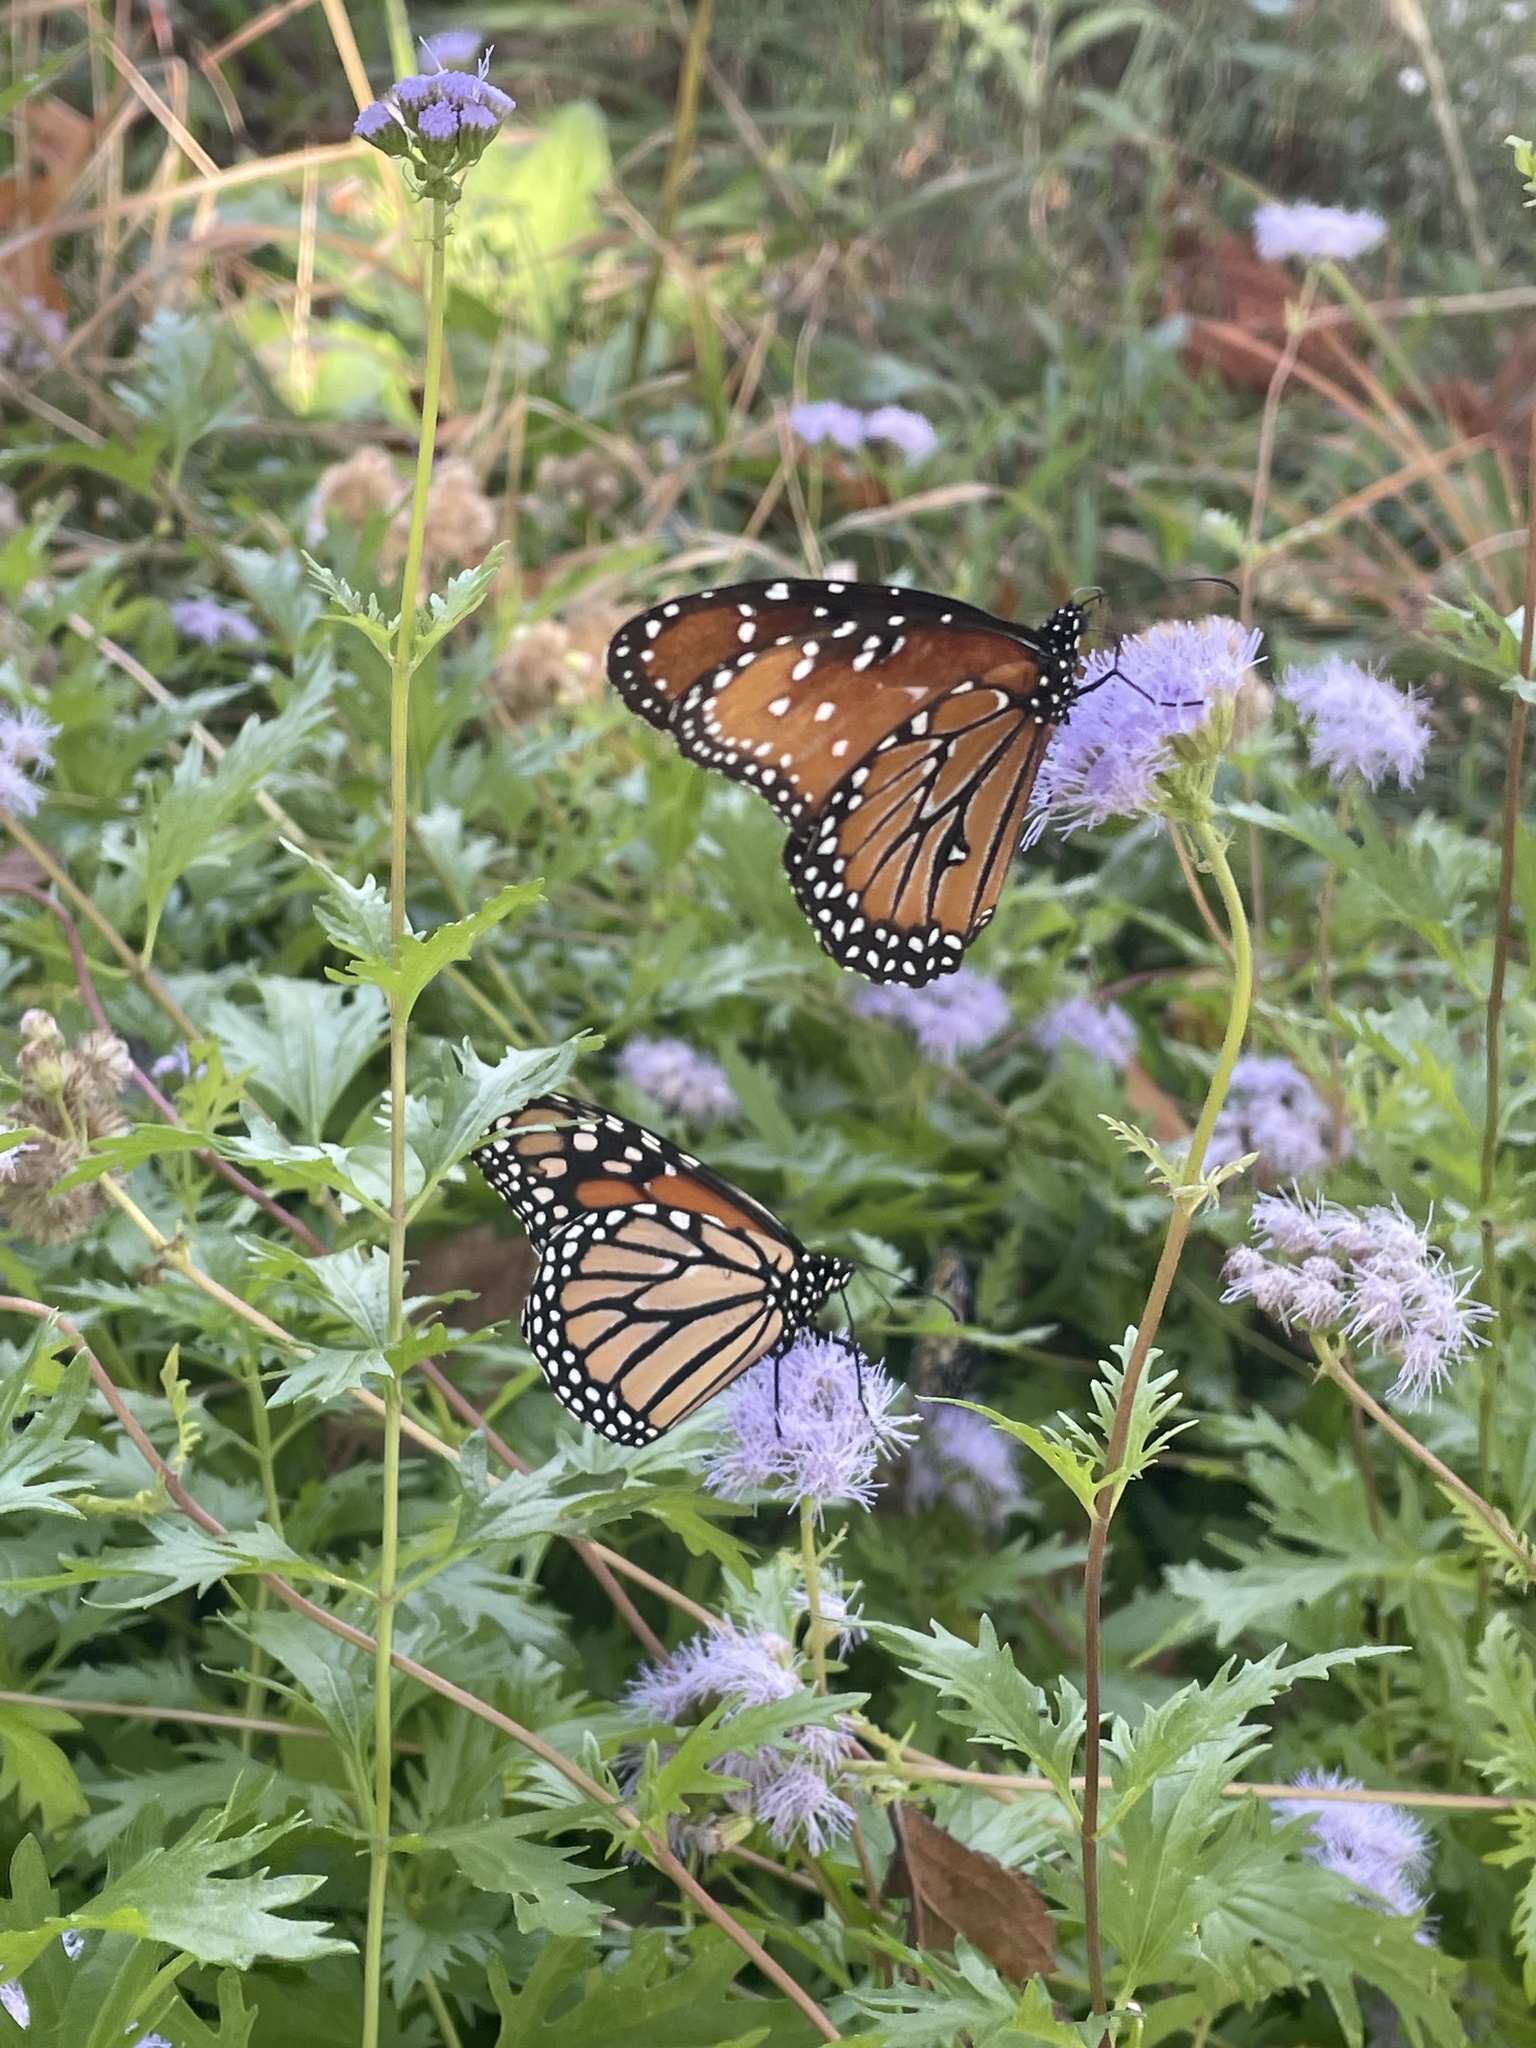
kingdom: Animalia
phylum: Arthropoda
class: Insecta
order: Lepidoptera
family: Nymphalidae
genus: Danaus
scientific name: Danaus plexippus
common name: Monarch
